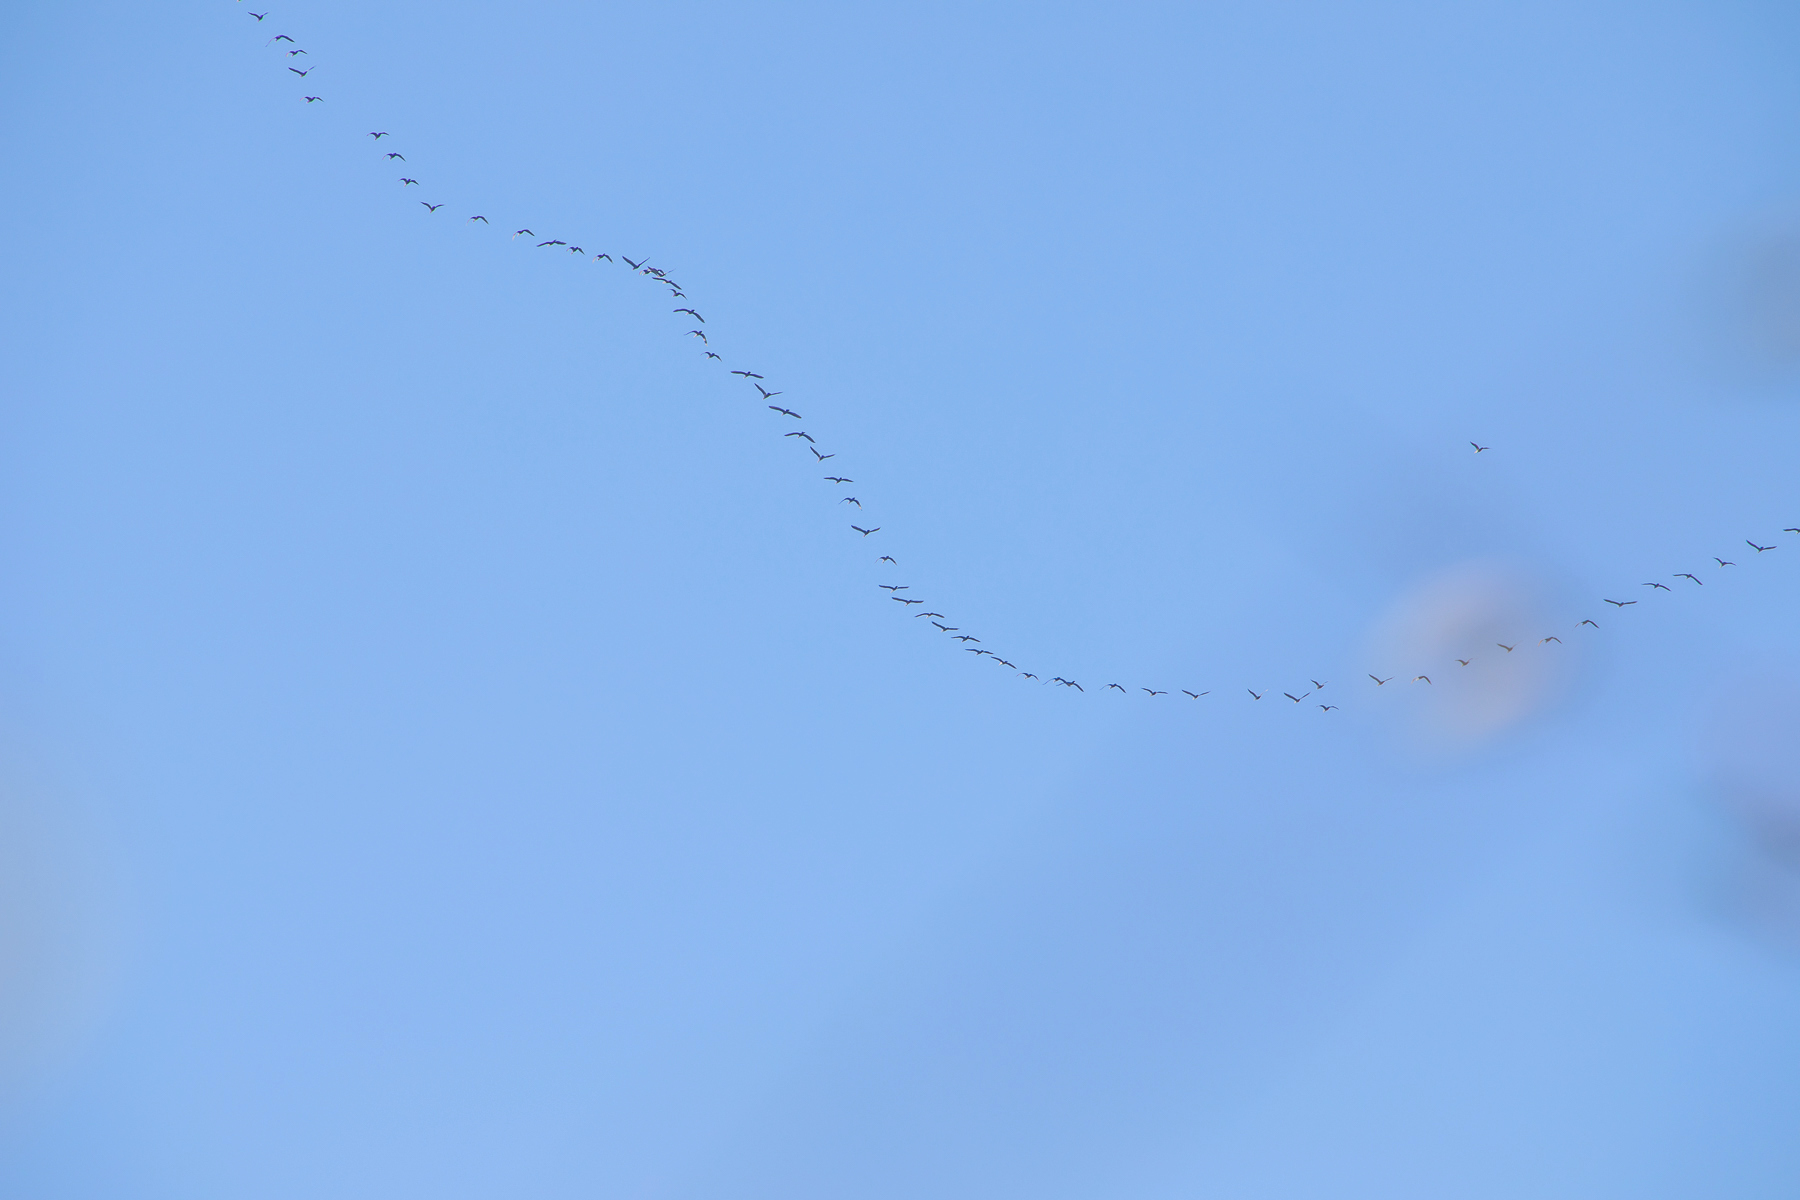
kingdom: Animalia
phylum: Chordata
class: Aves
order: Gruiformes
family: Gruidae
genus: Grus
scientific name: Grus canadensis
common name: Sandhill crane
